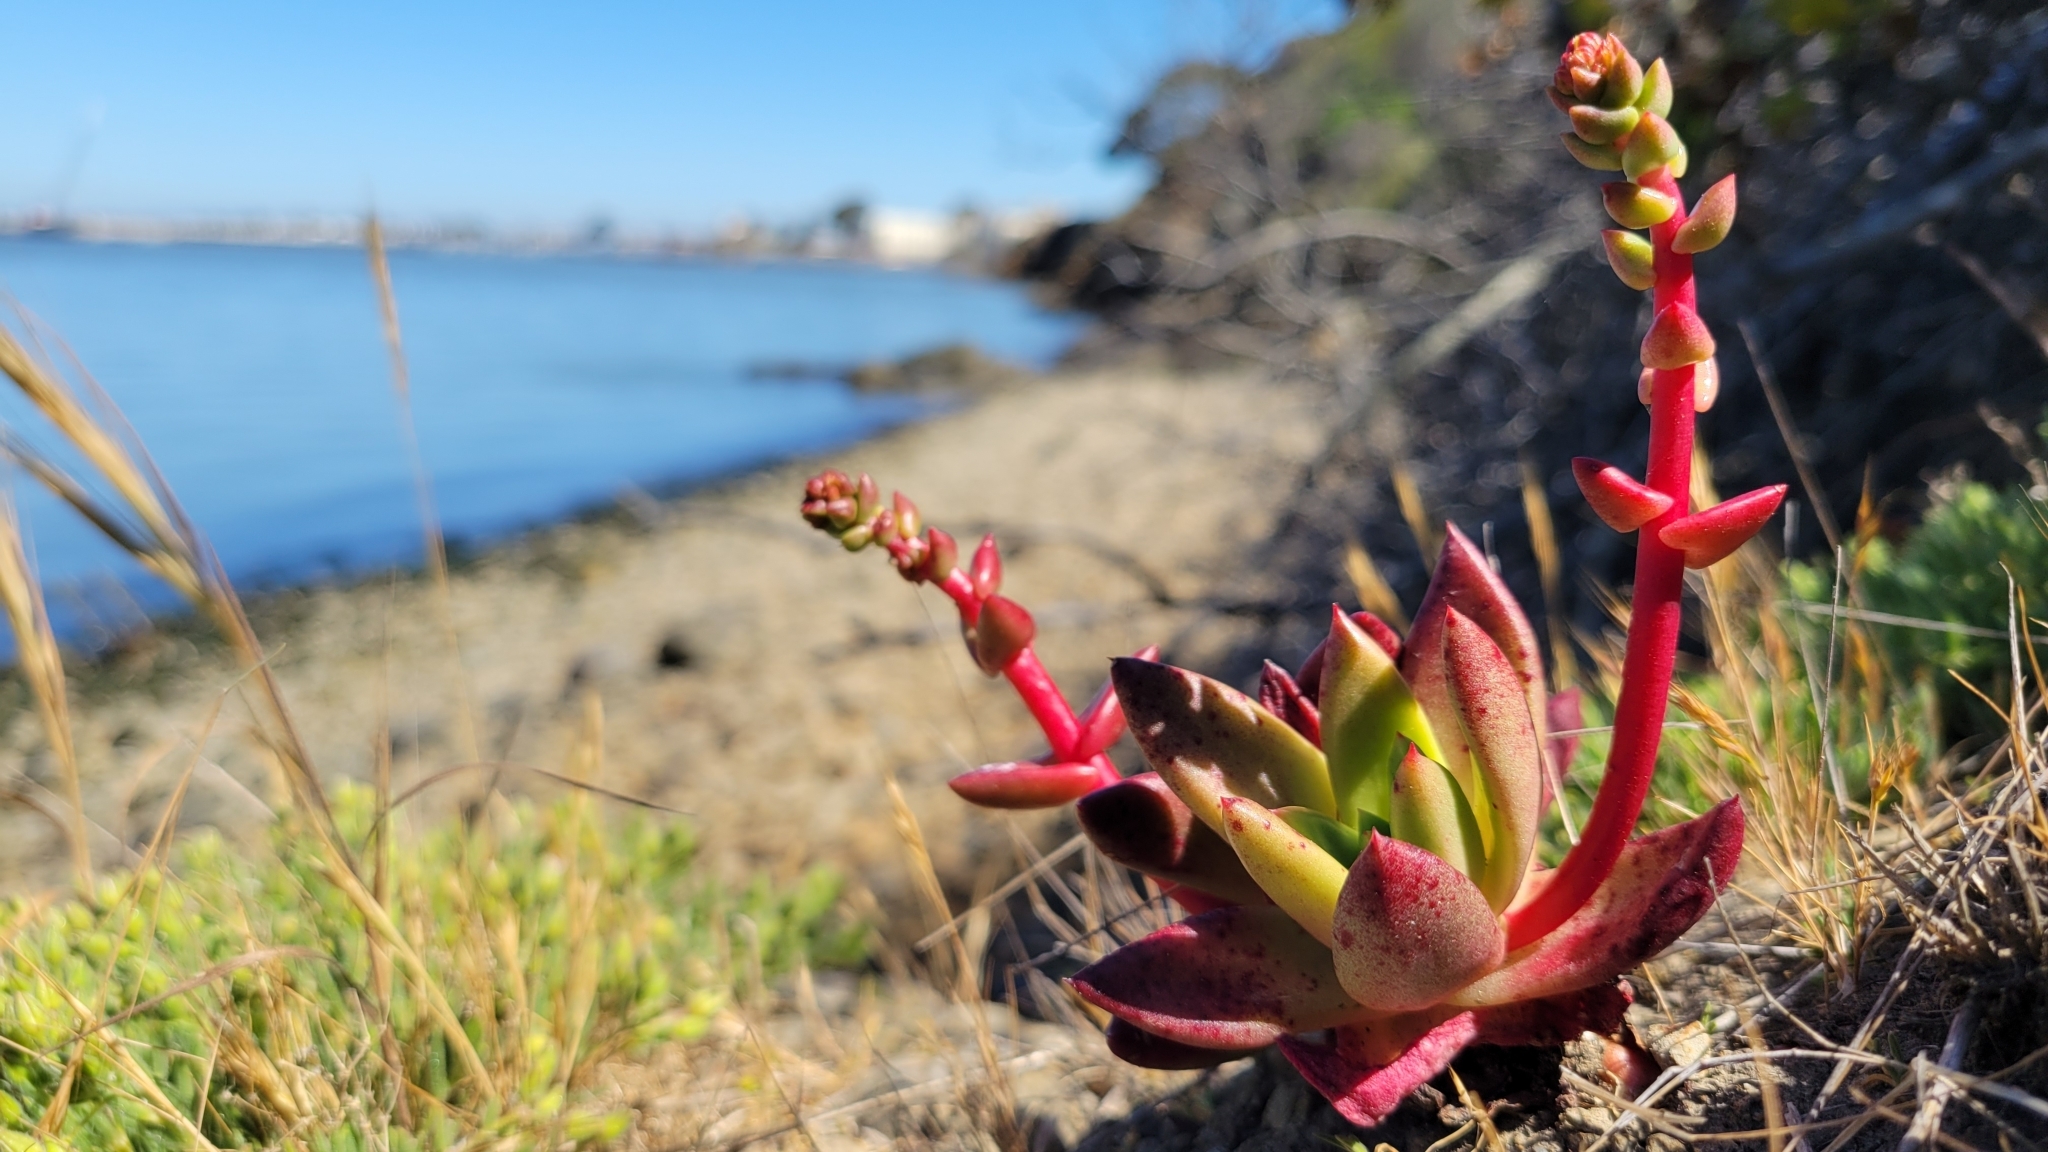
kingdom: Plantae
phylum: Tracheophyta
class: Magnoliopsida
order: Saxifragales
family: Crassulaceae
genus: Dudleya
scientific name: Dudleya farinosa
